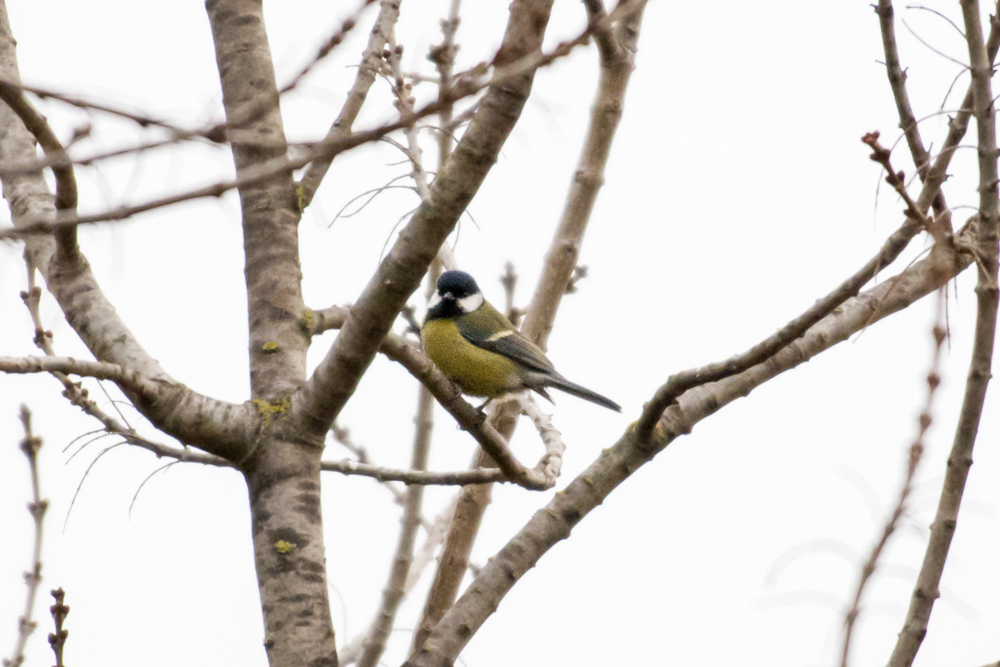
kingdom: Animalia
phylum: Chordata
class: Aves
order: Passeriformes
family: Paridae
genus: Parus
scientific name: Parus major
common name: Great tit
